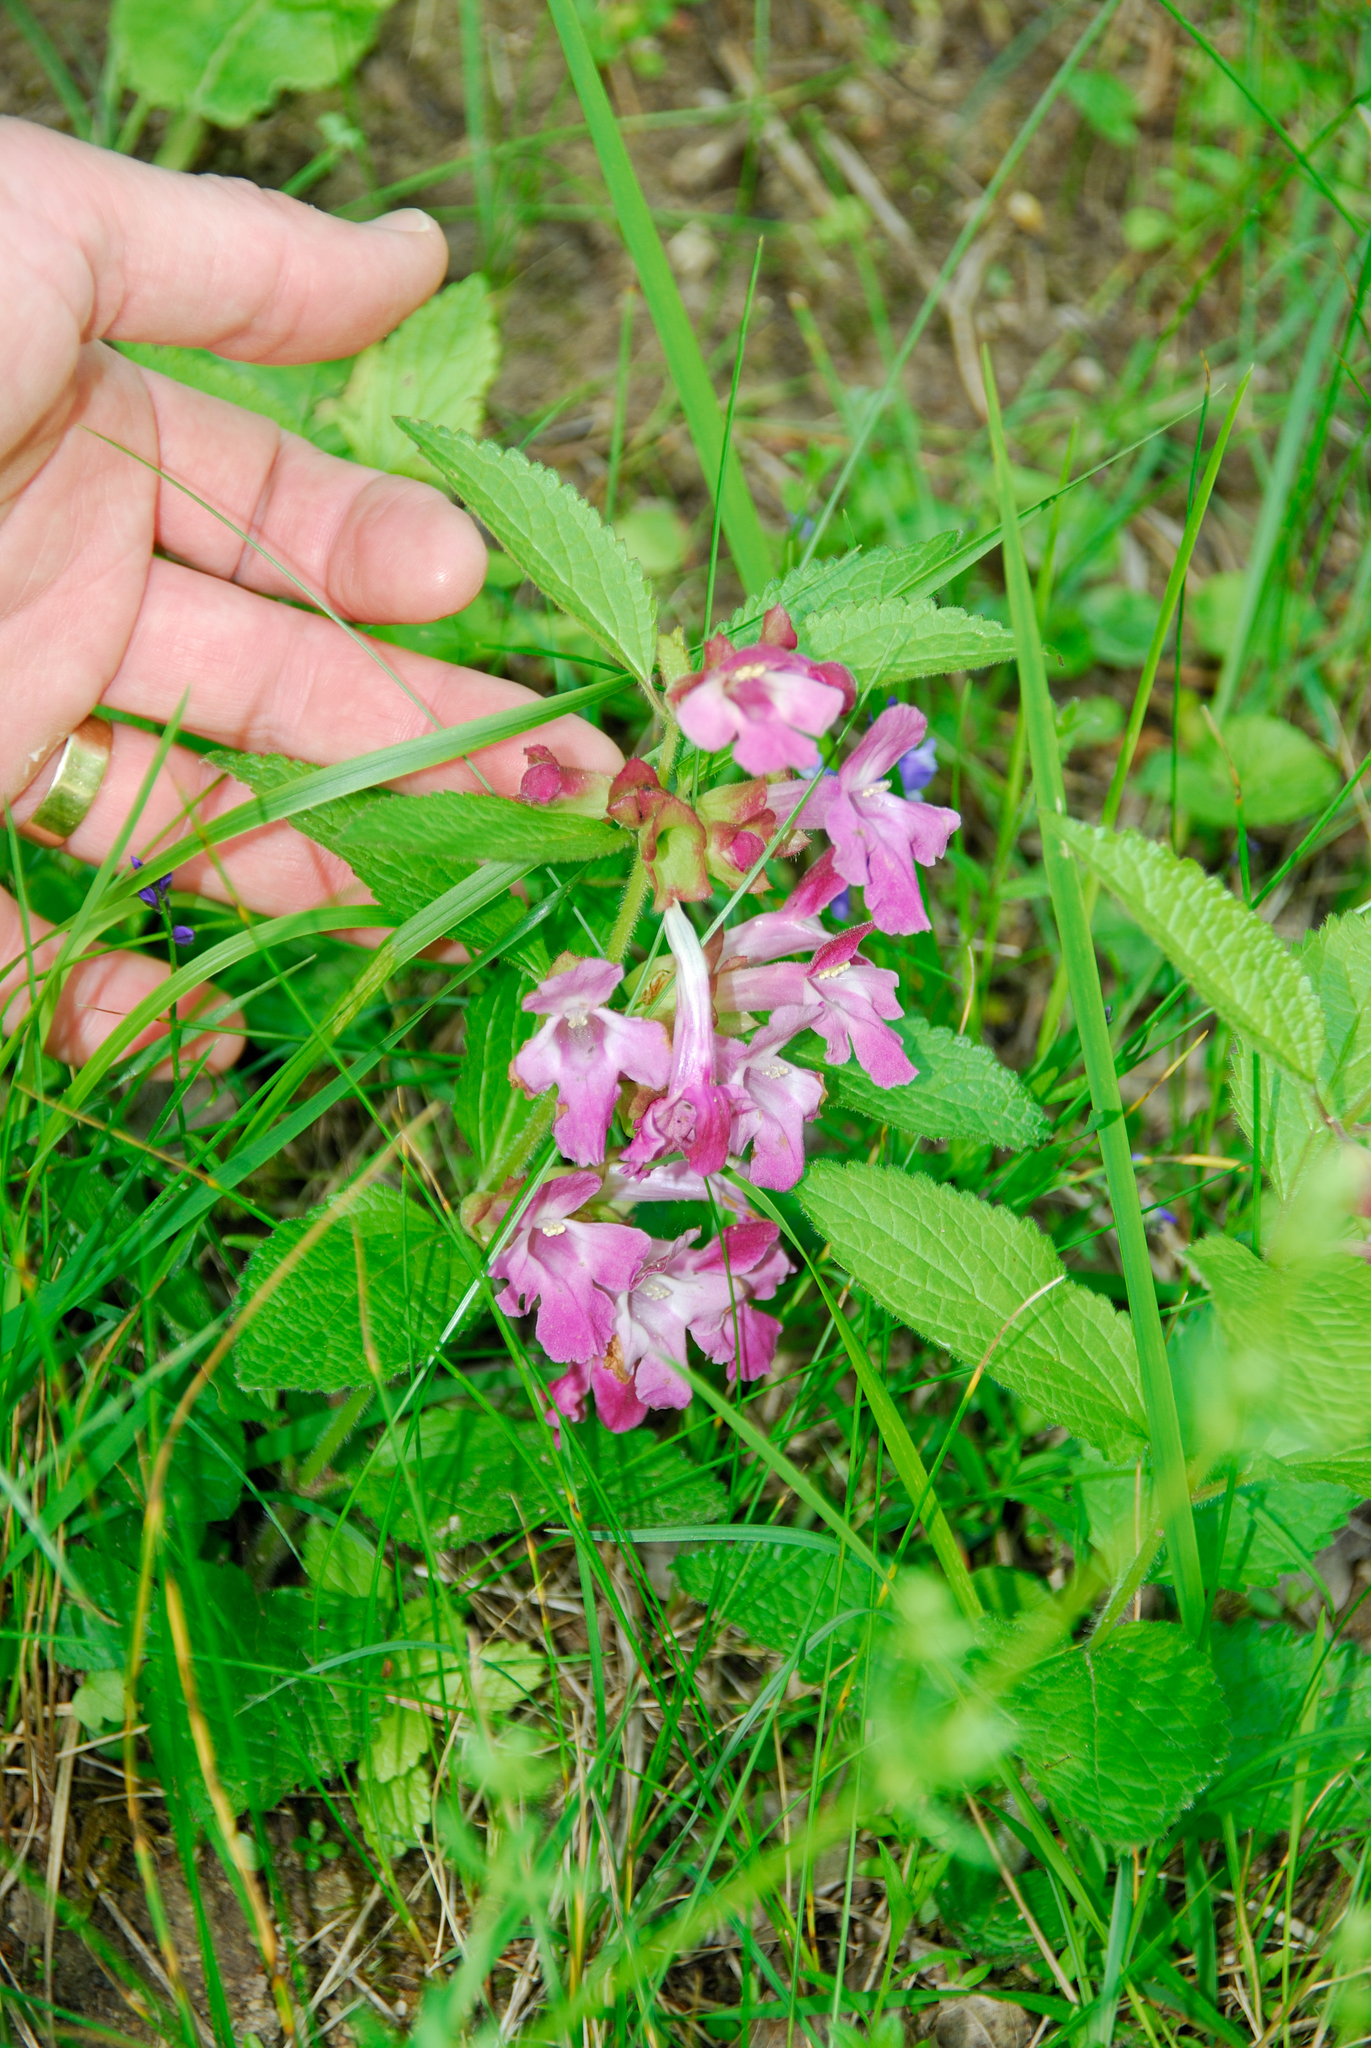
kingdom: Plantae
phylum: Tracheophyta
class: Magnoliopsida
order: Lamiales
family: Lamiaceae
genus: Melittis
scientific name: Melittis melissophyllum
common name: Bastard balm
